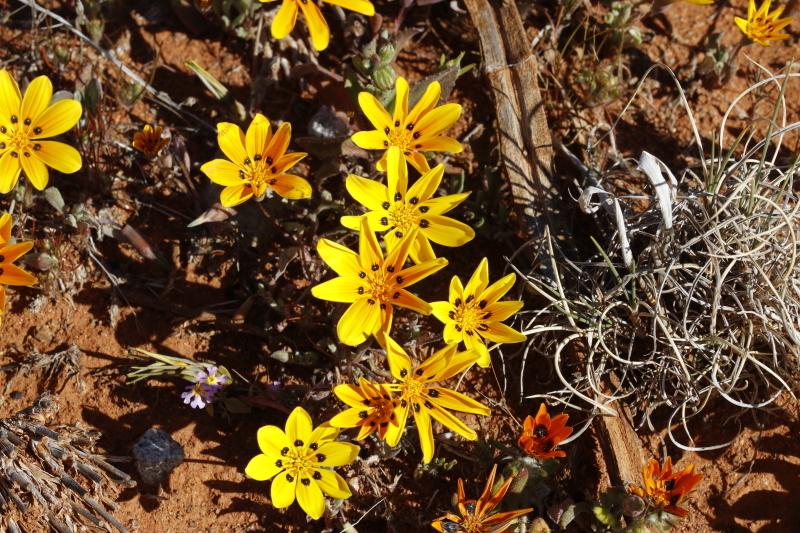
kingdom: Plantae
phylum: Tracheophyta
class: Magnoliopsida
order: Asterales
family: Asteraceae
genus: Gazania
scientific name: Gazania lichtensteinii
